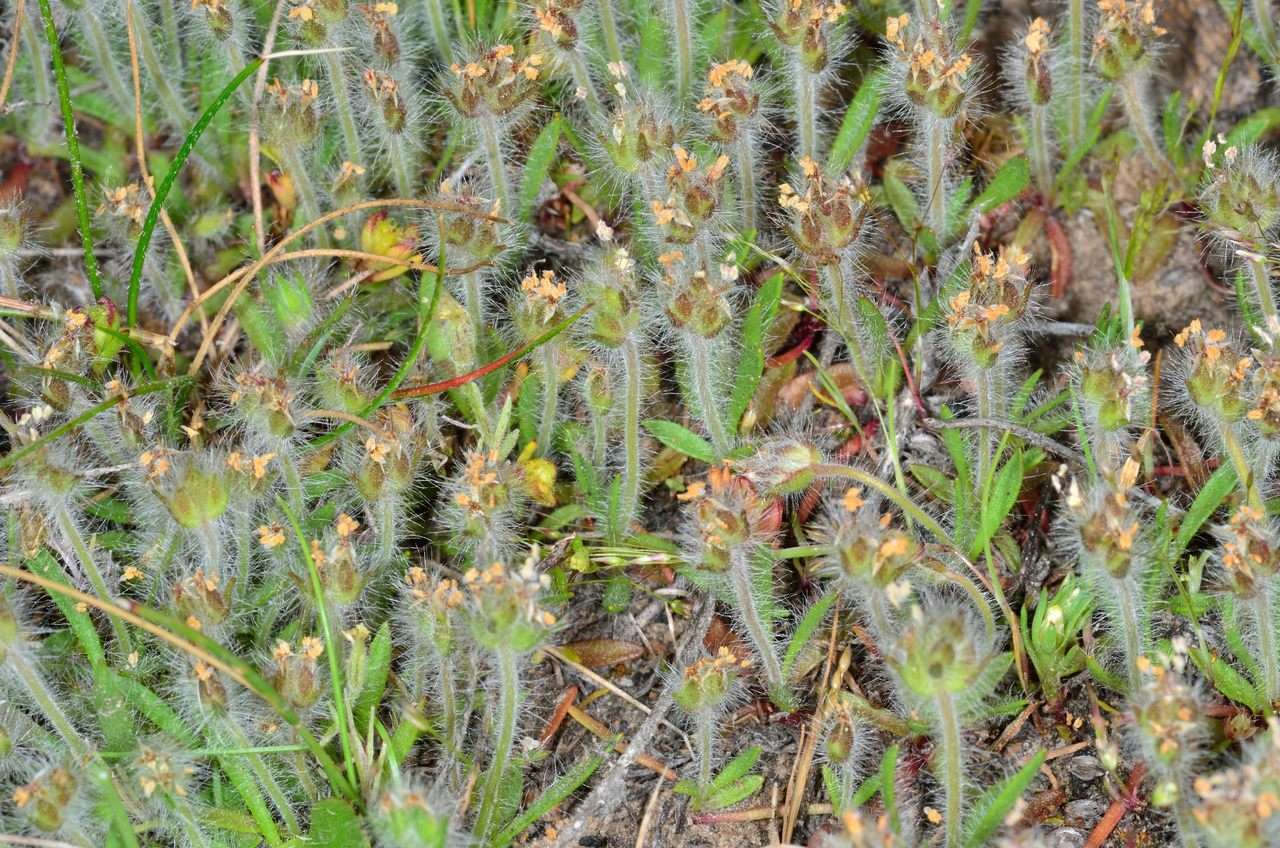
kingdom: Plantae
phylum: Tracheophyta
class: Magnoliopsida
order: Lamiales
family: Plantaginaceae
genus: Plantago
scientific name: Plantago bellardii
